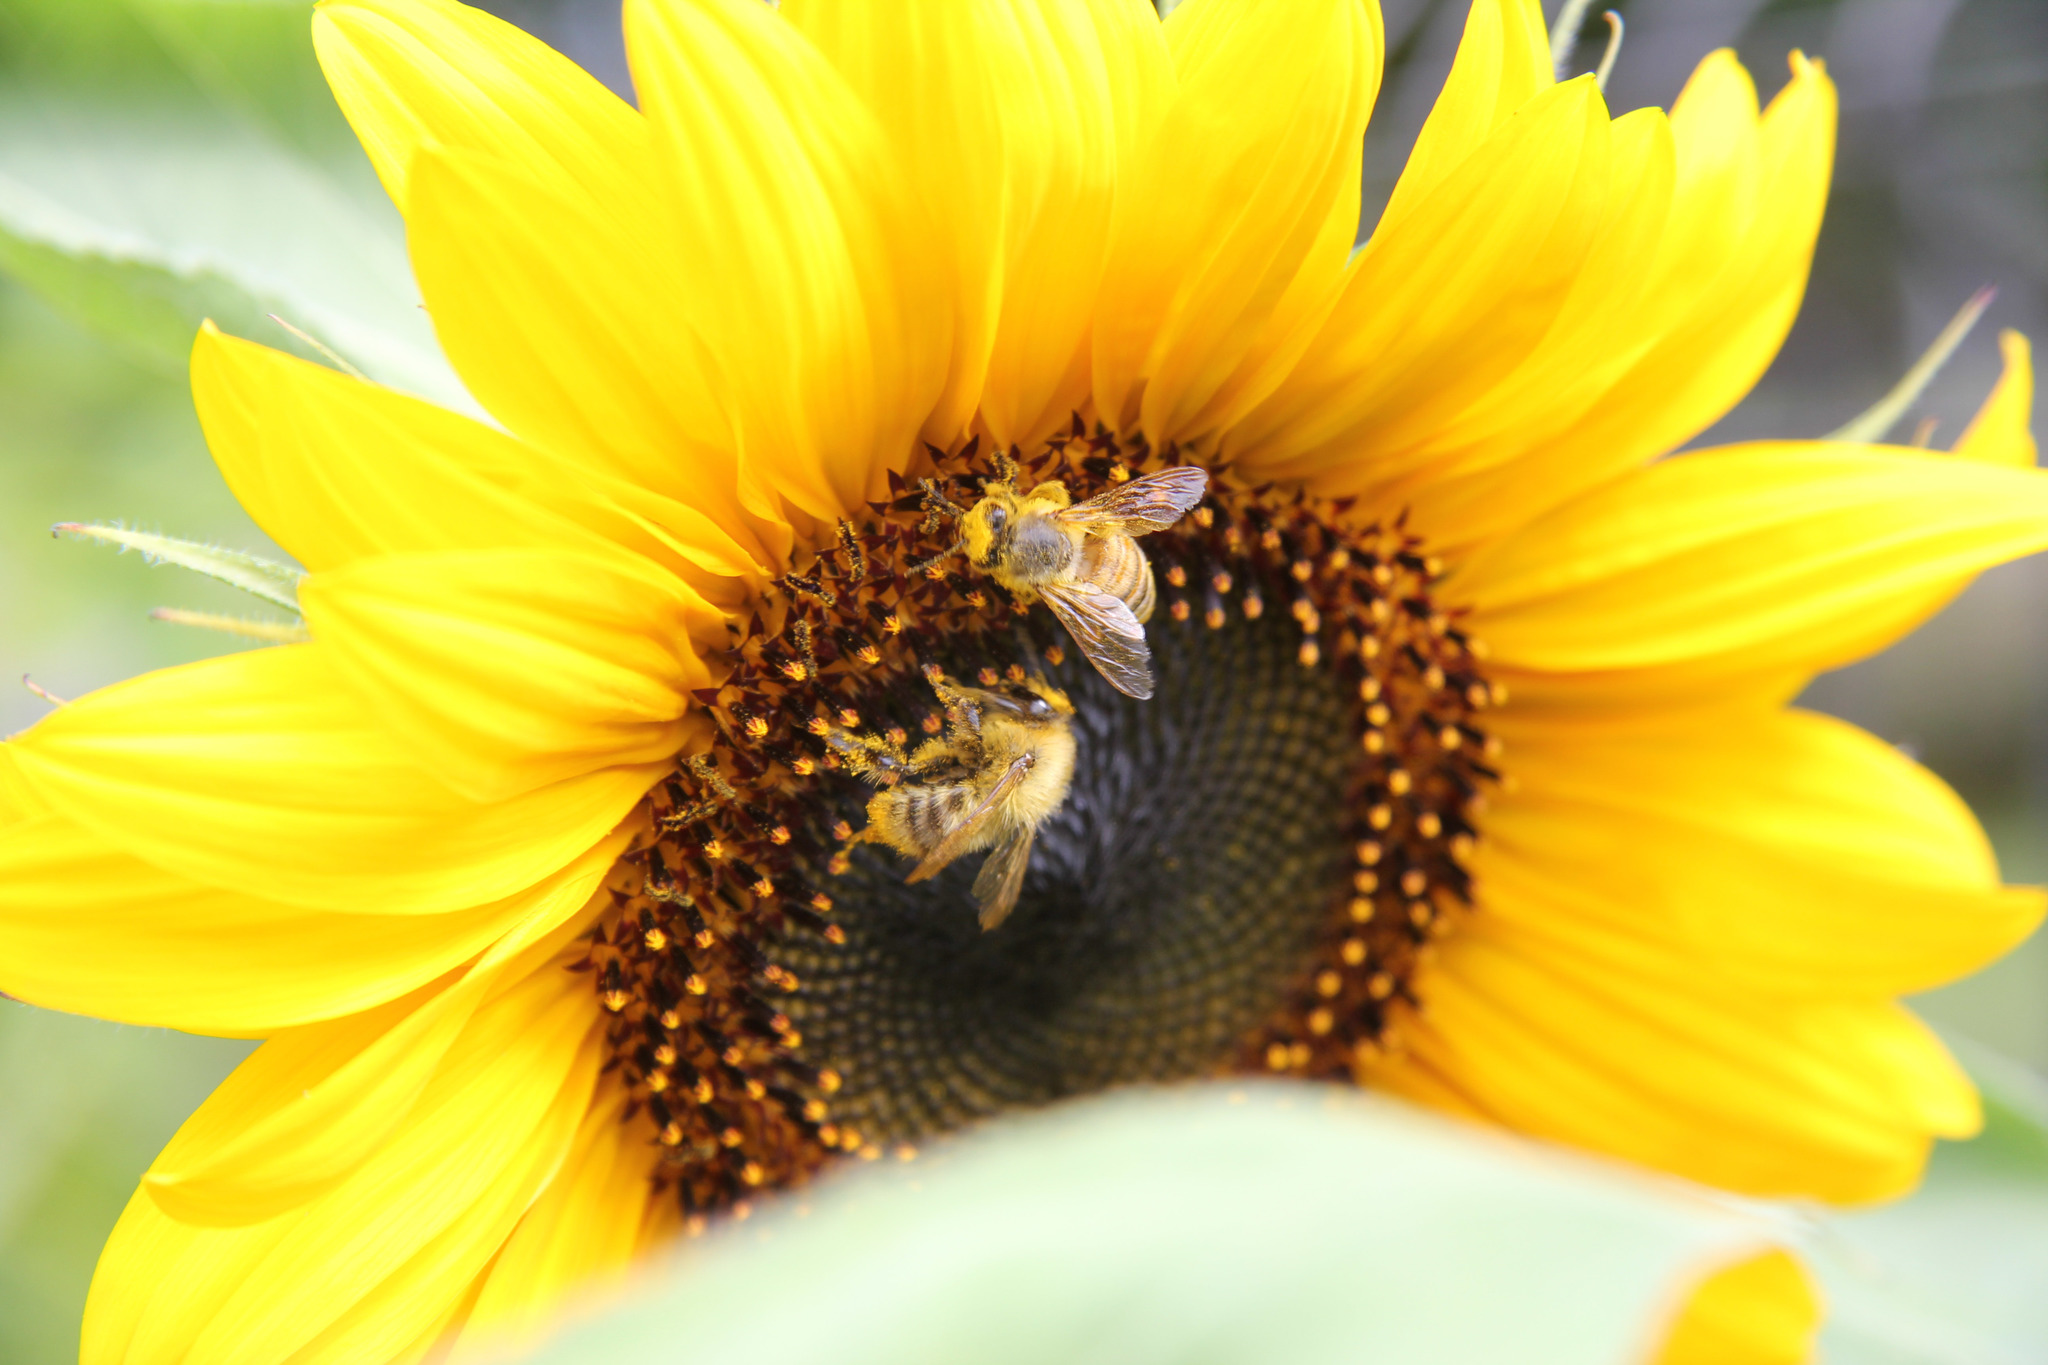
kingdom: Animalia
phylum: Arthropoda
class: Insecta
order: Hymenoptera
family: Apidae
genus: Apis
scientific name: Apis mellifera
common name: Honey bee
